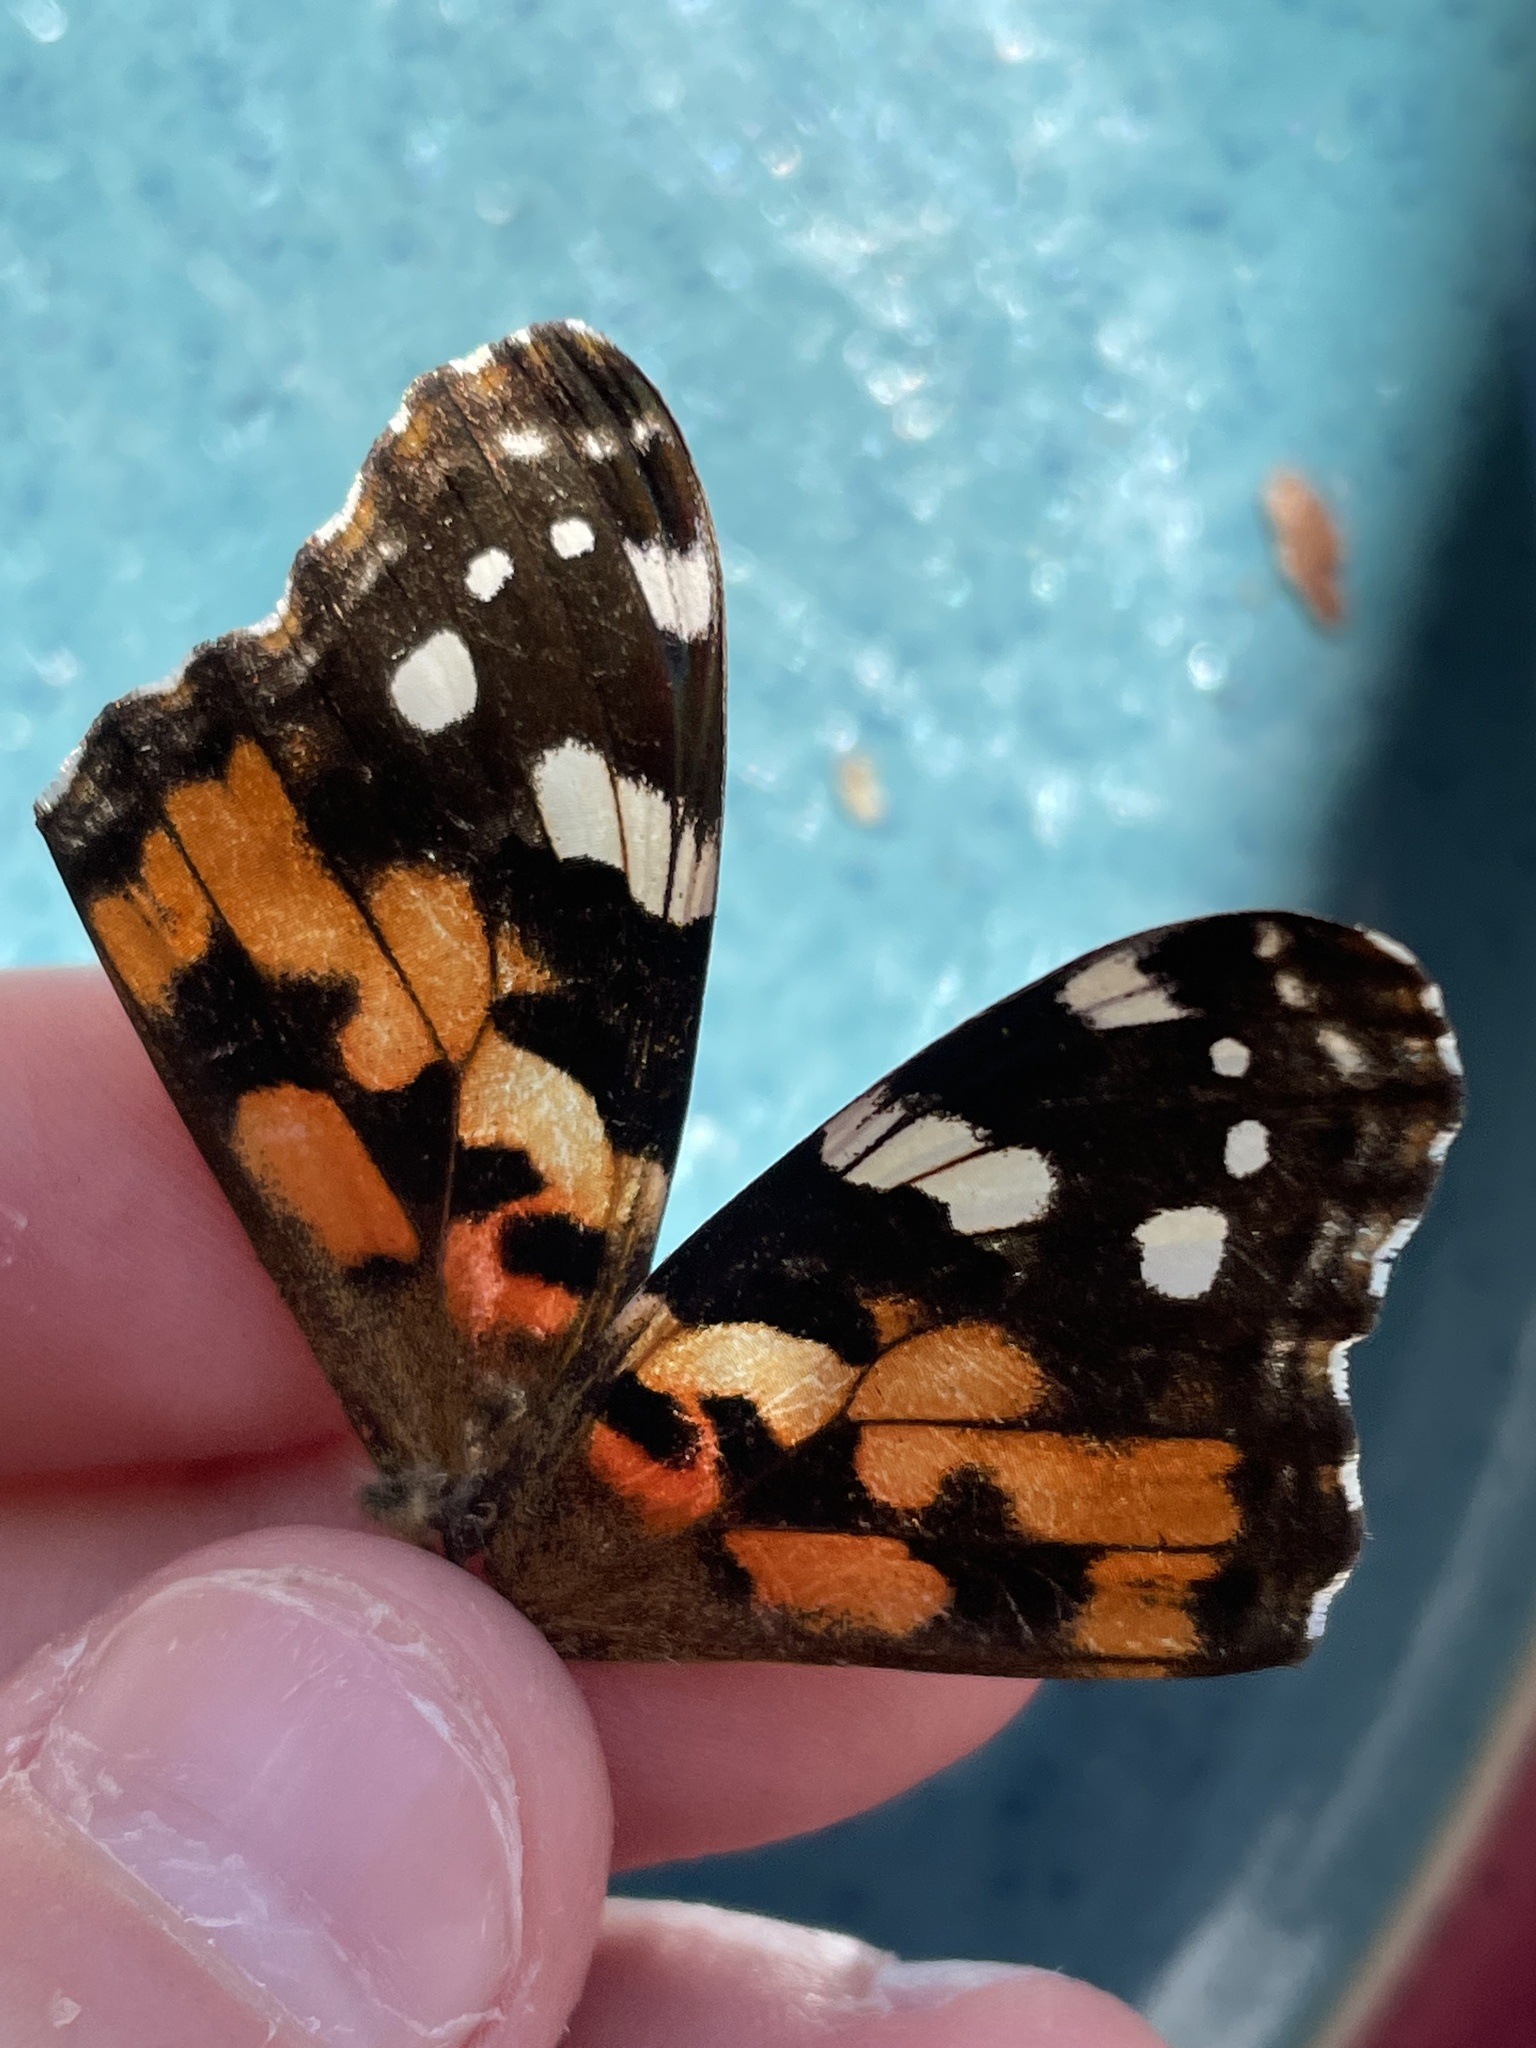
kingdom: Animalia
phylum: Arthropoda
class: Insecta
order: Lepidoptera
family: Nymphalidae
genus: Vanessa
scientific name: Vanessa cardui
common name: Painted lady
